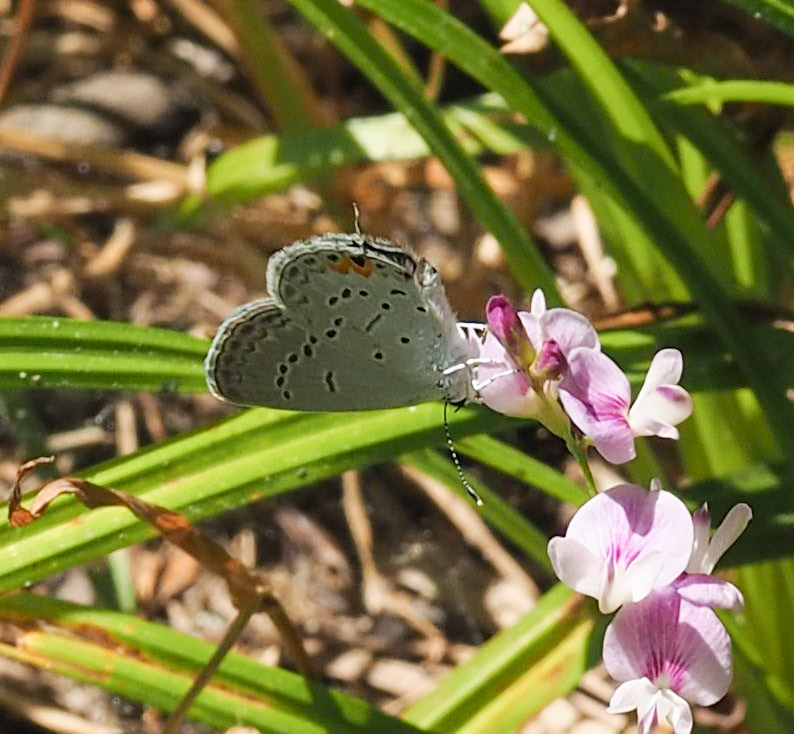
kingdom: Animalia
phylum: Arthropoda
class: Insecta
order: Lepidoptera
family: Lycaenidae
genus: Elkalyce
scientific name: Elkalyce comyntas
